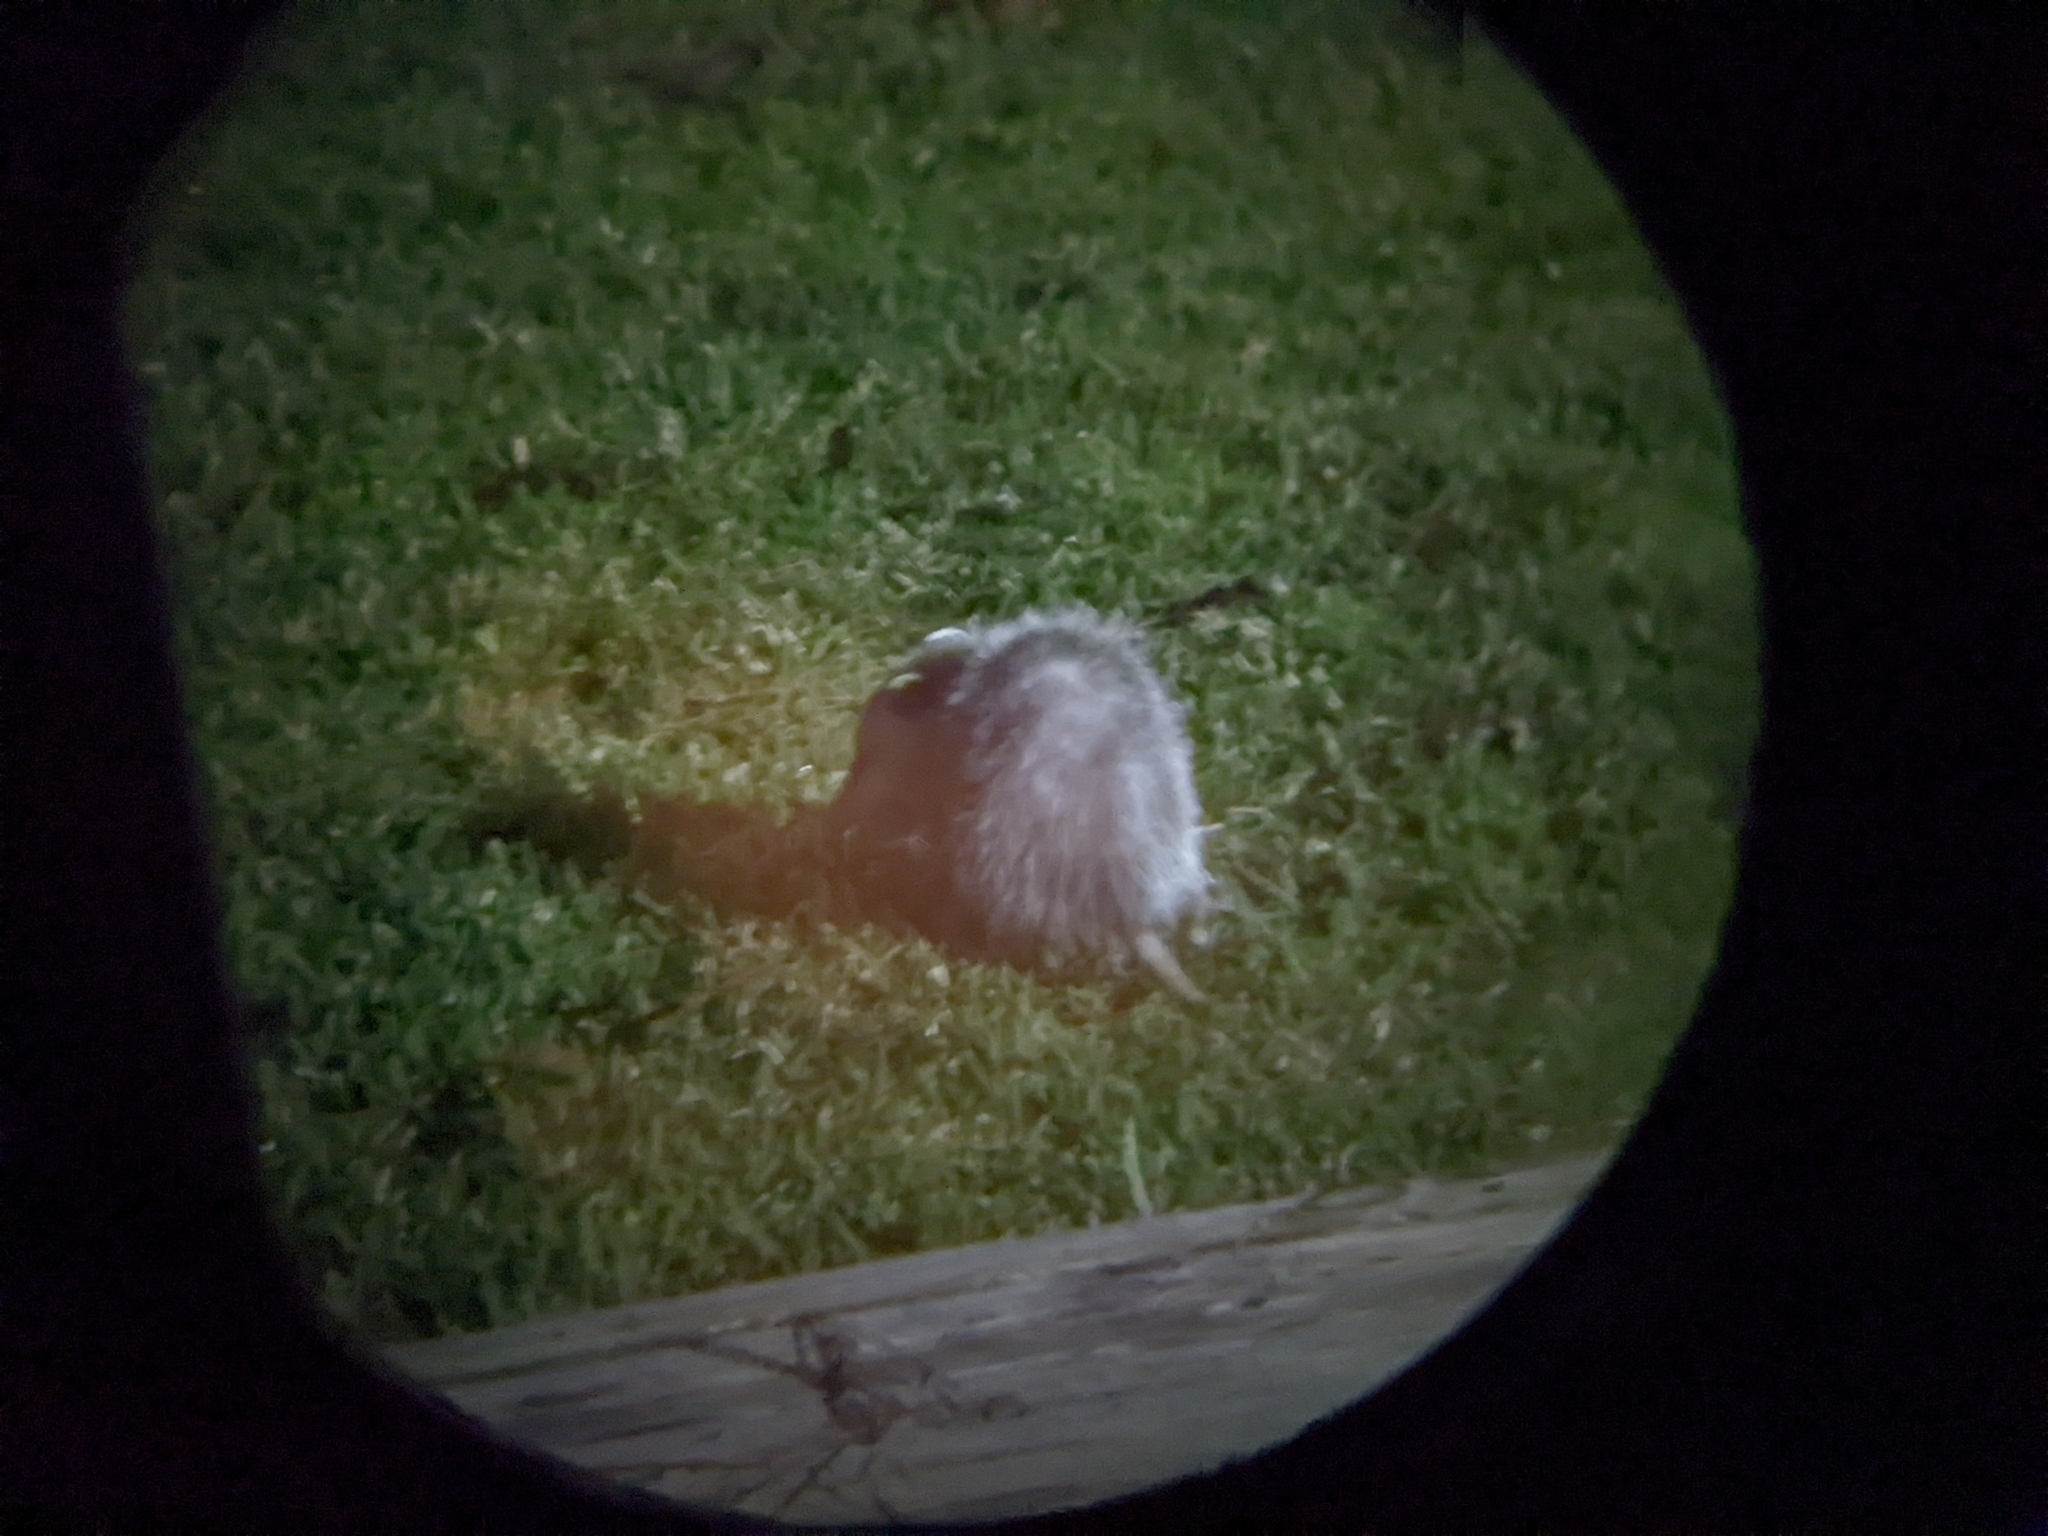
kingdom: Animalia
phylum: Chordata
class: Mammalia
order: Didelphimorphia
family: Didelphidae
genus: Didelphis
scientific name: Didelphis virginiana
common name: Virginia opossum
